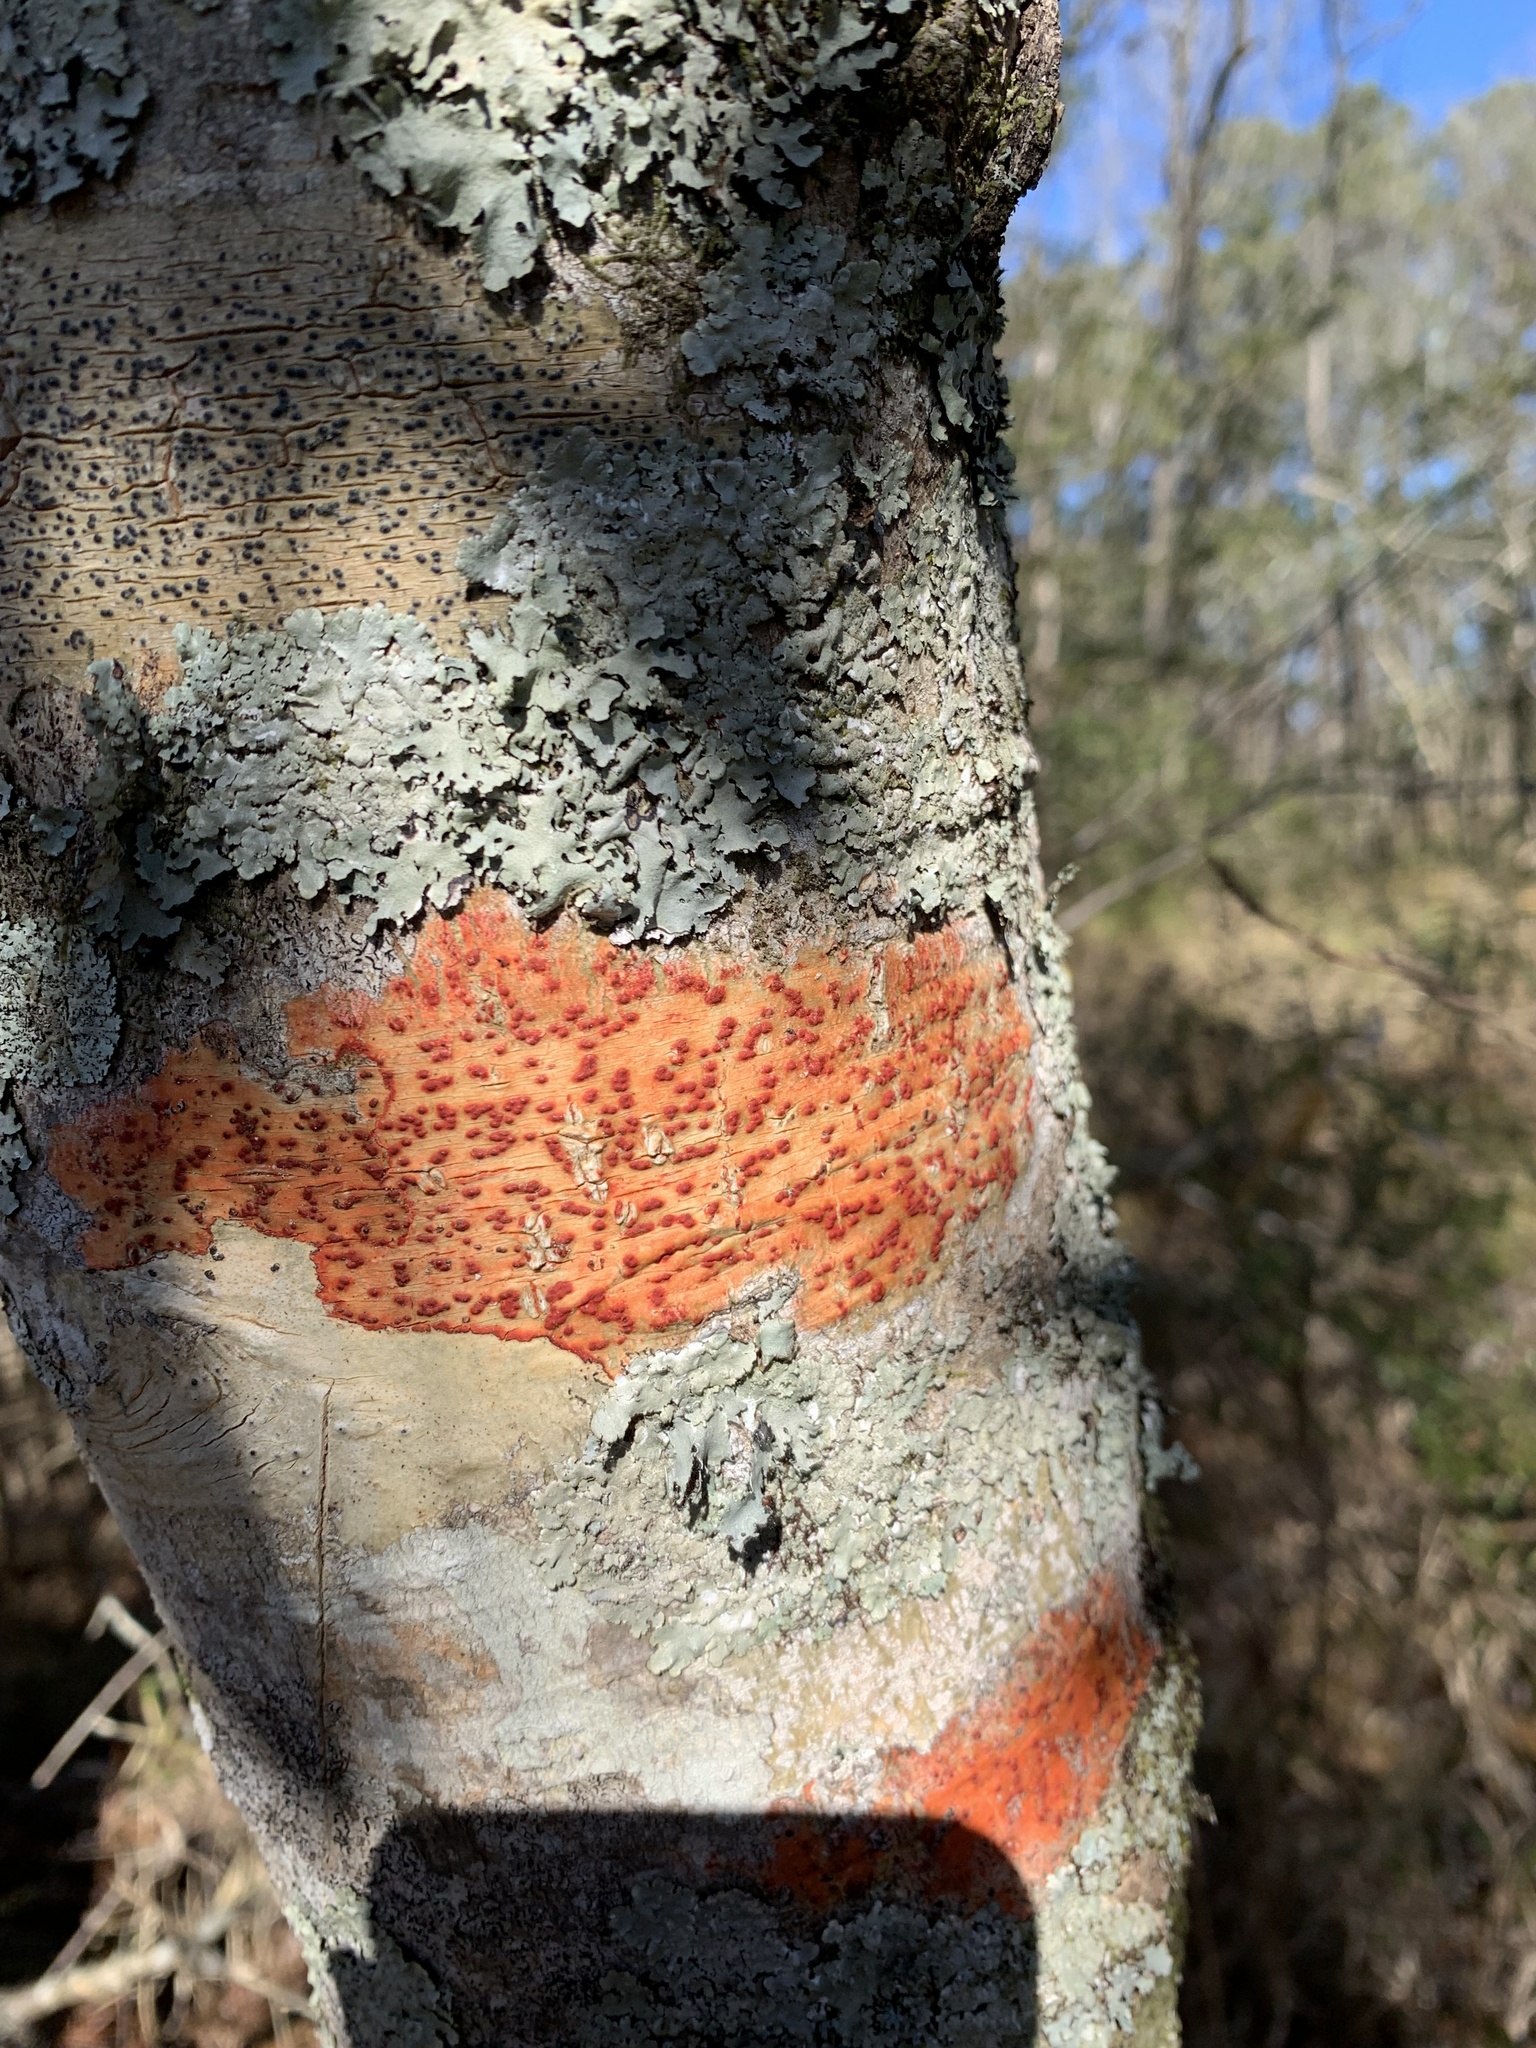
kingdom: Fungi
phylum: Ascomycota
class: Eurotiomycetes
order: Pyrenulales
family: Pyrenulaceae
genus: Pyrenula
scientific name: Pyrenula cruenta
